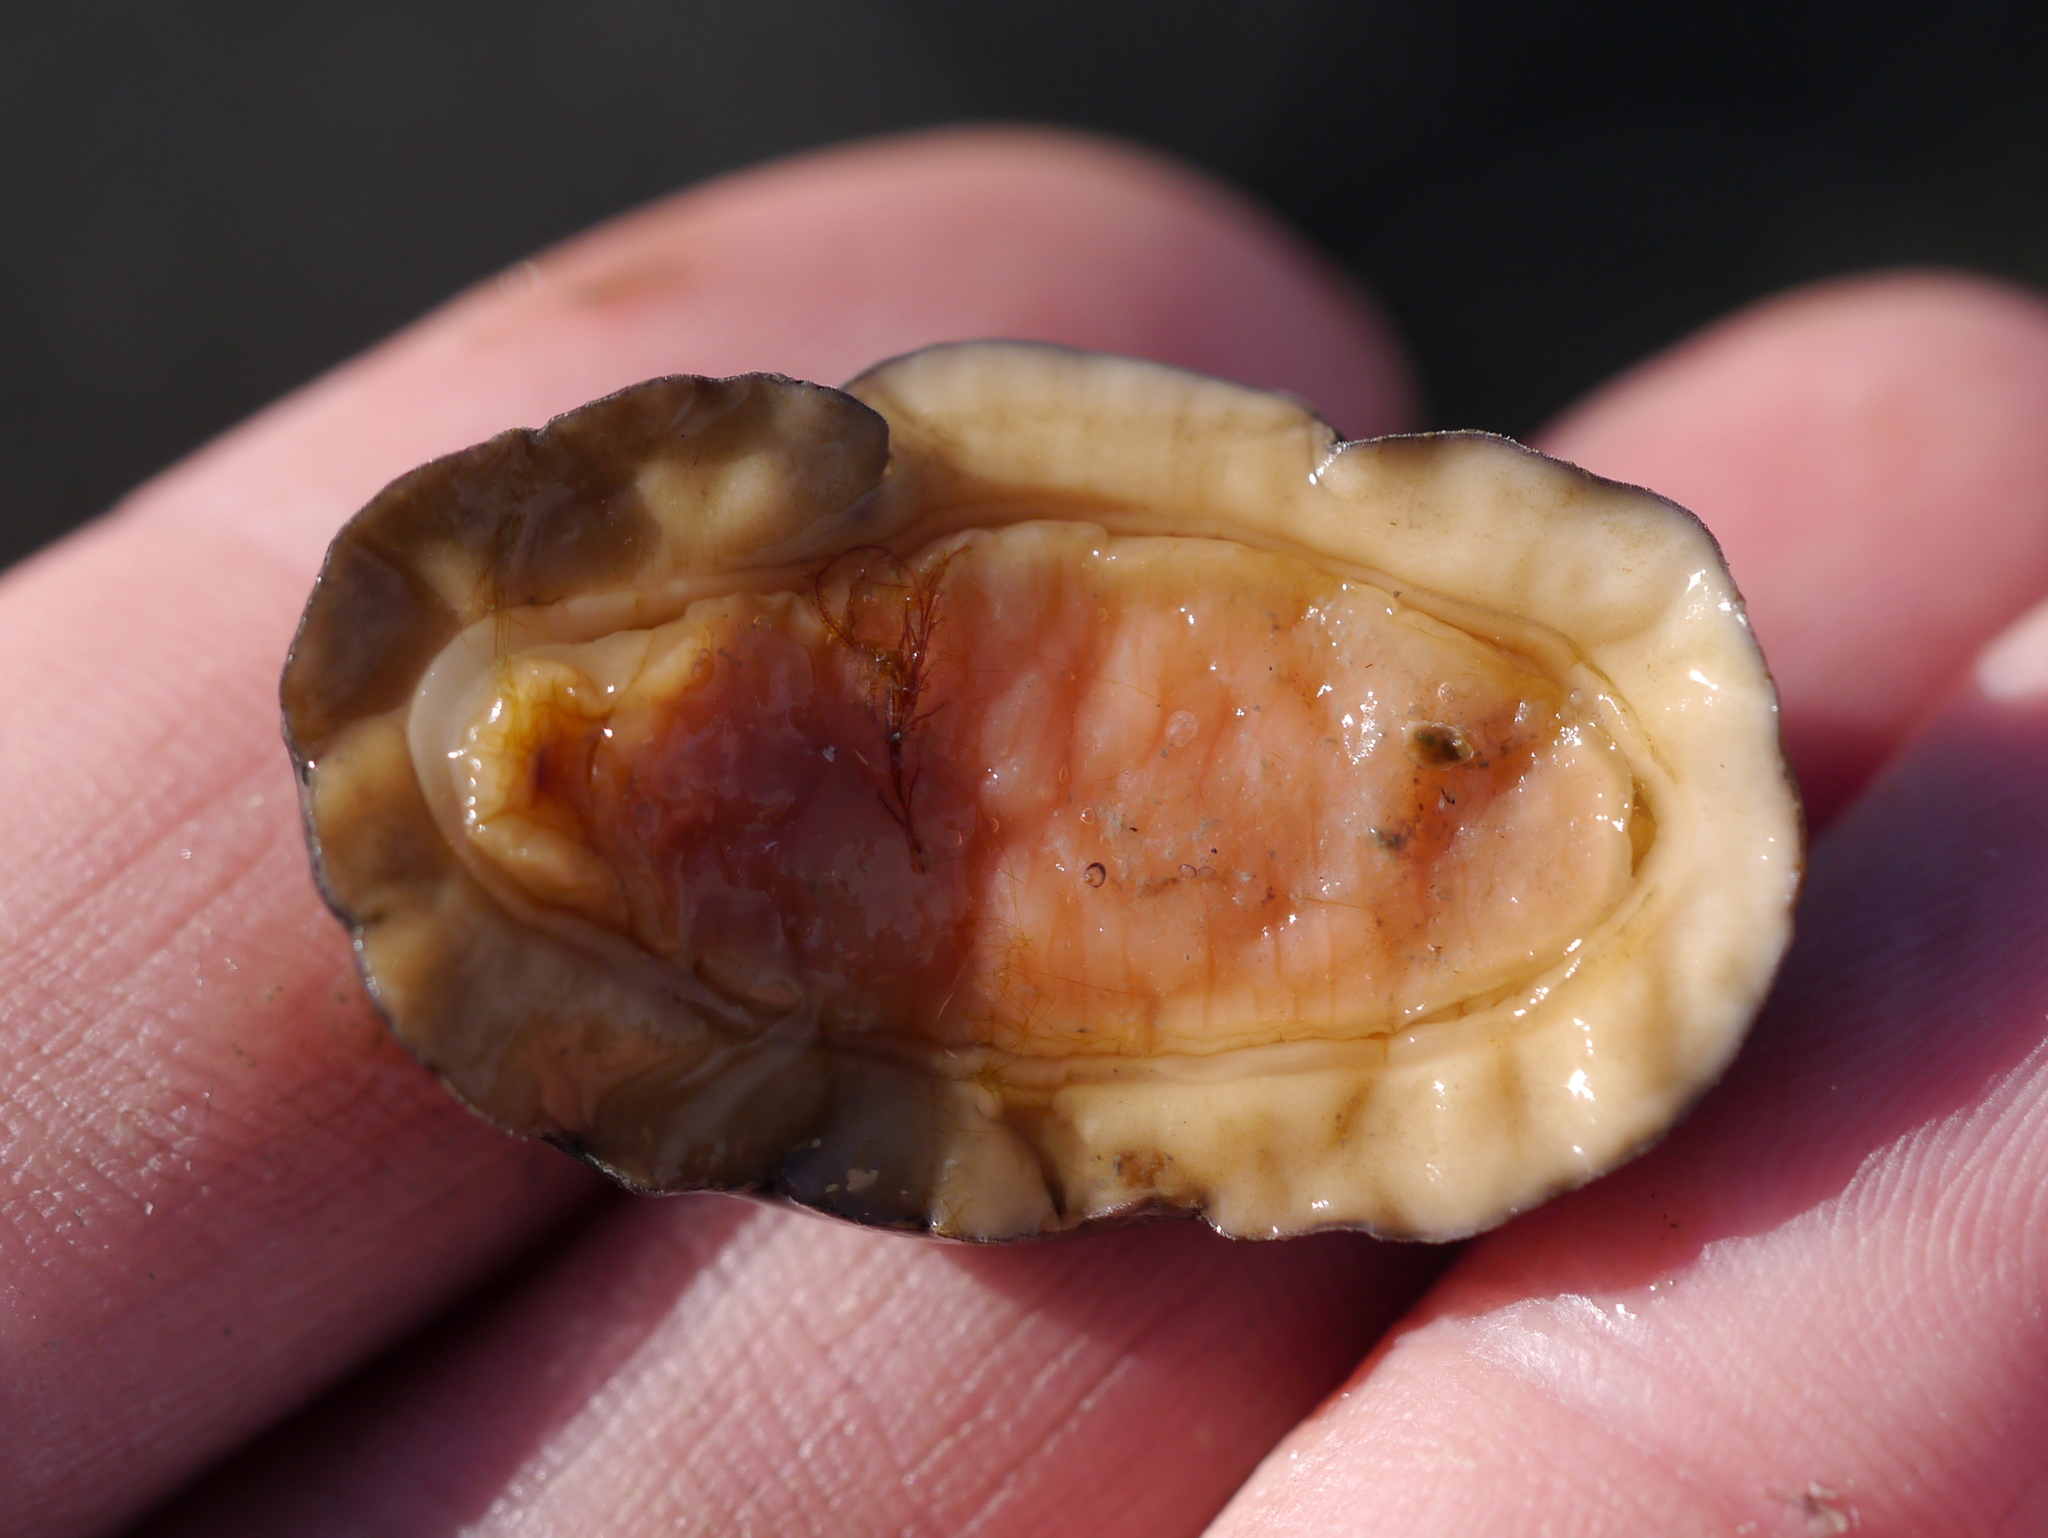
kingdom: Animalia
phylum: Mollusca
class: Polyplacophora
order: Chitonida
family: Mopaliidae
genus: Katharina
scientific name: Katharina tunicata
